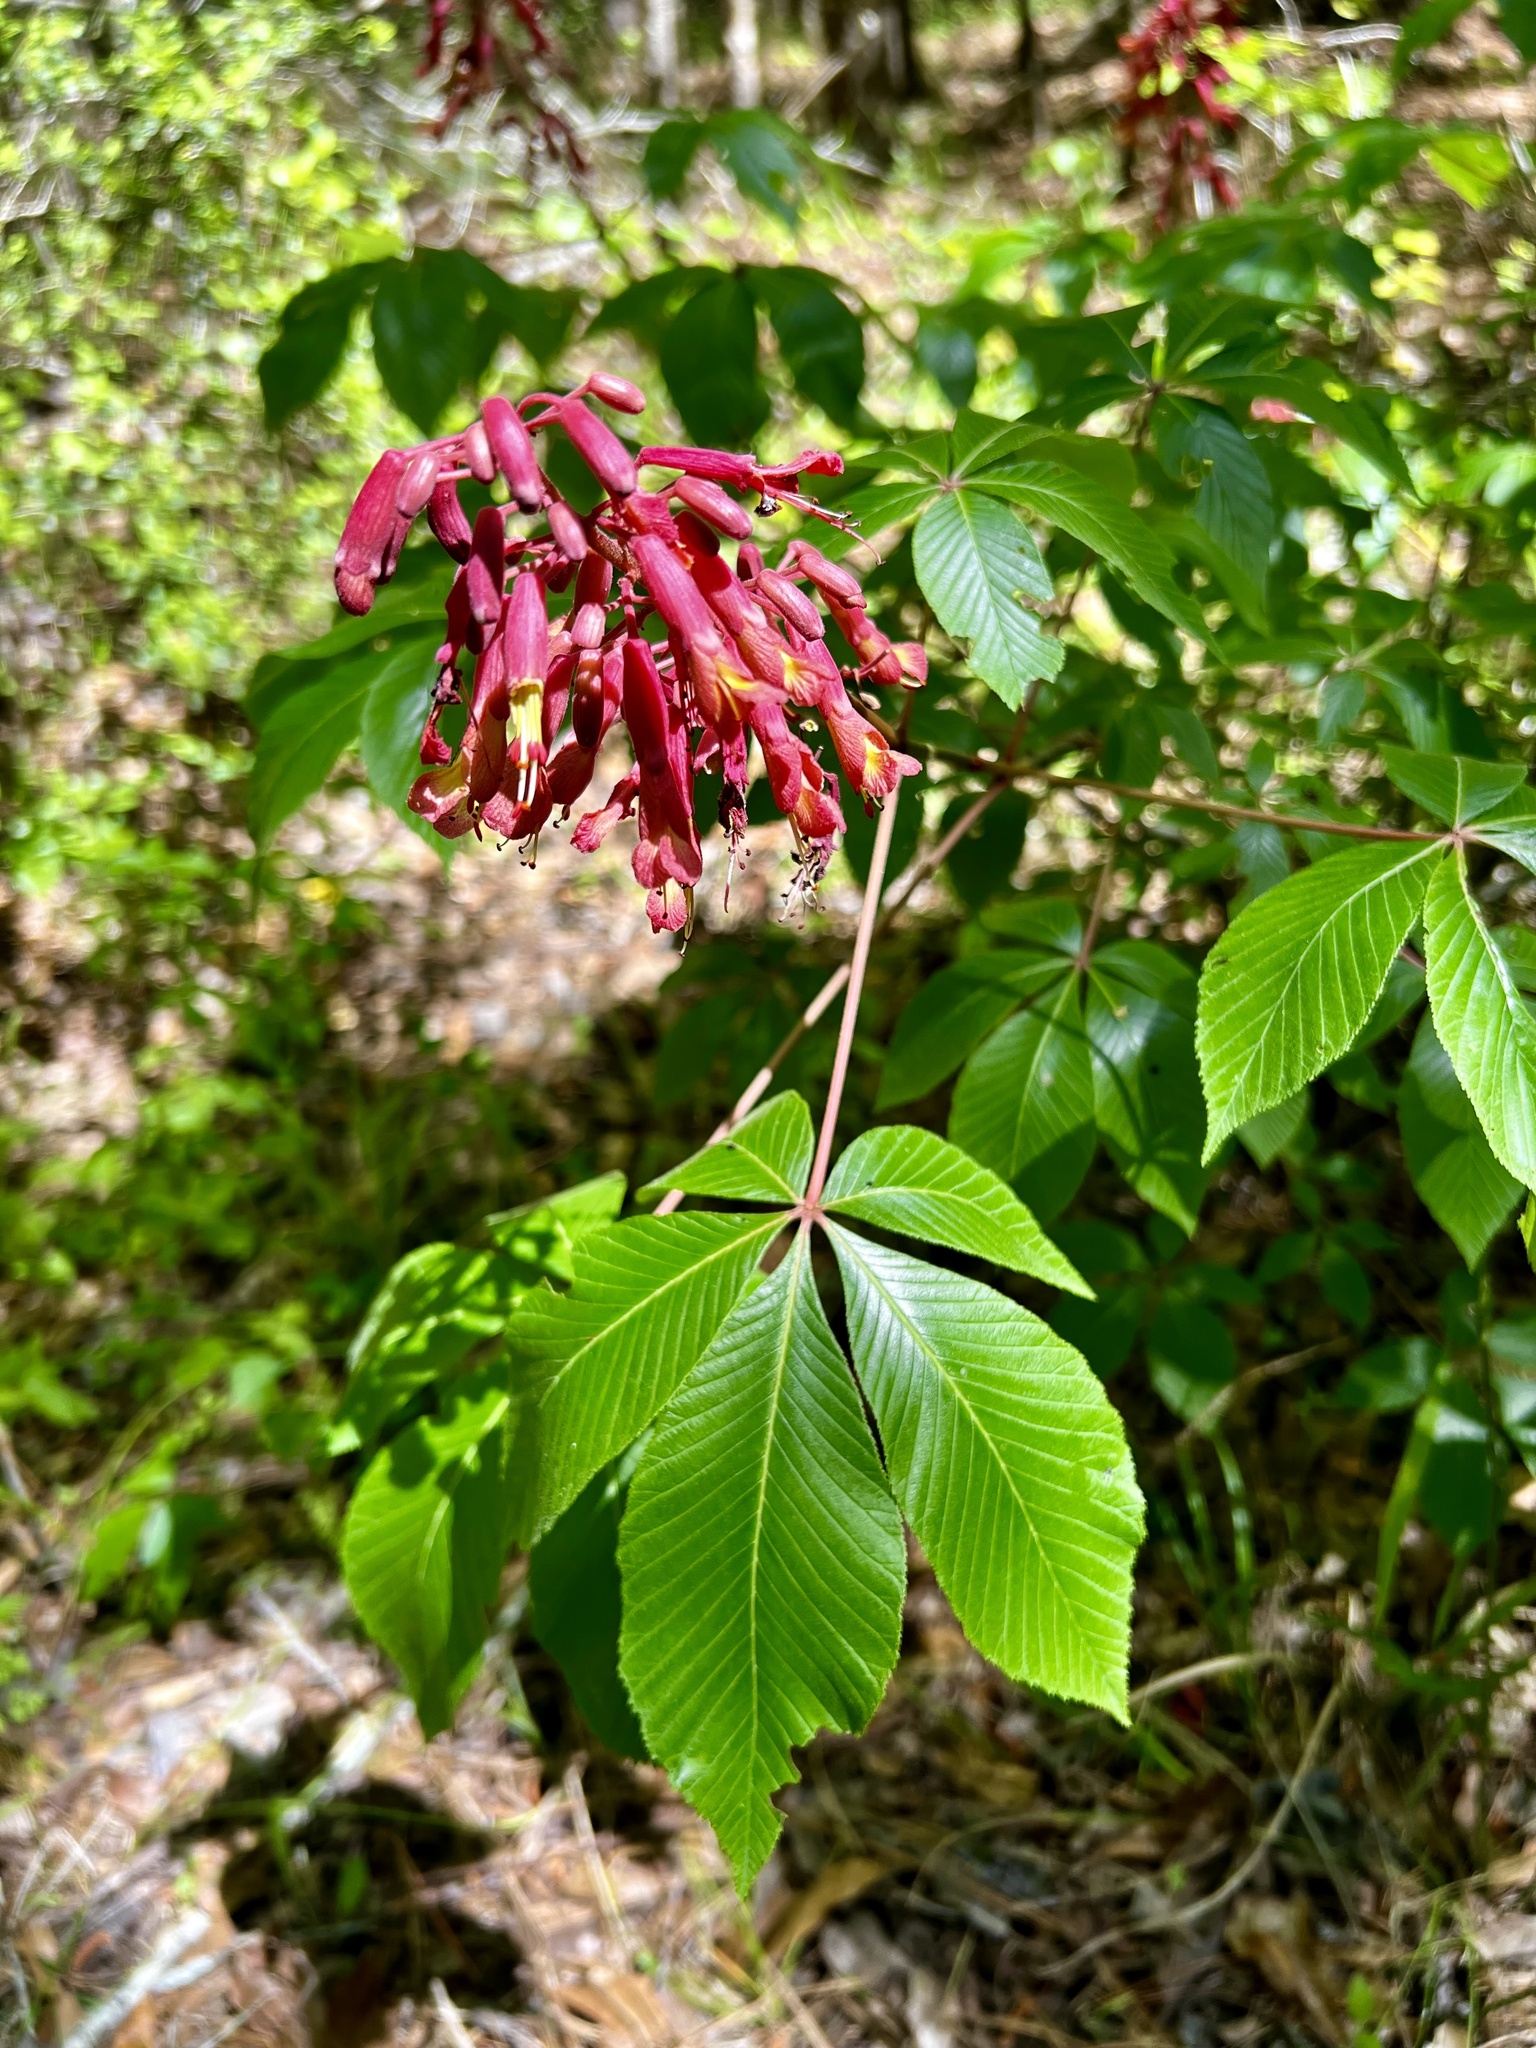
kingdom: Plantae
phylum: Tracheophyta
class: Magnoliopsida
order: Sapindales
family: Sapindaceae
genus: Aesculus
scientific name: Aesculus pavia
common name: Red buckeye
